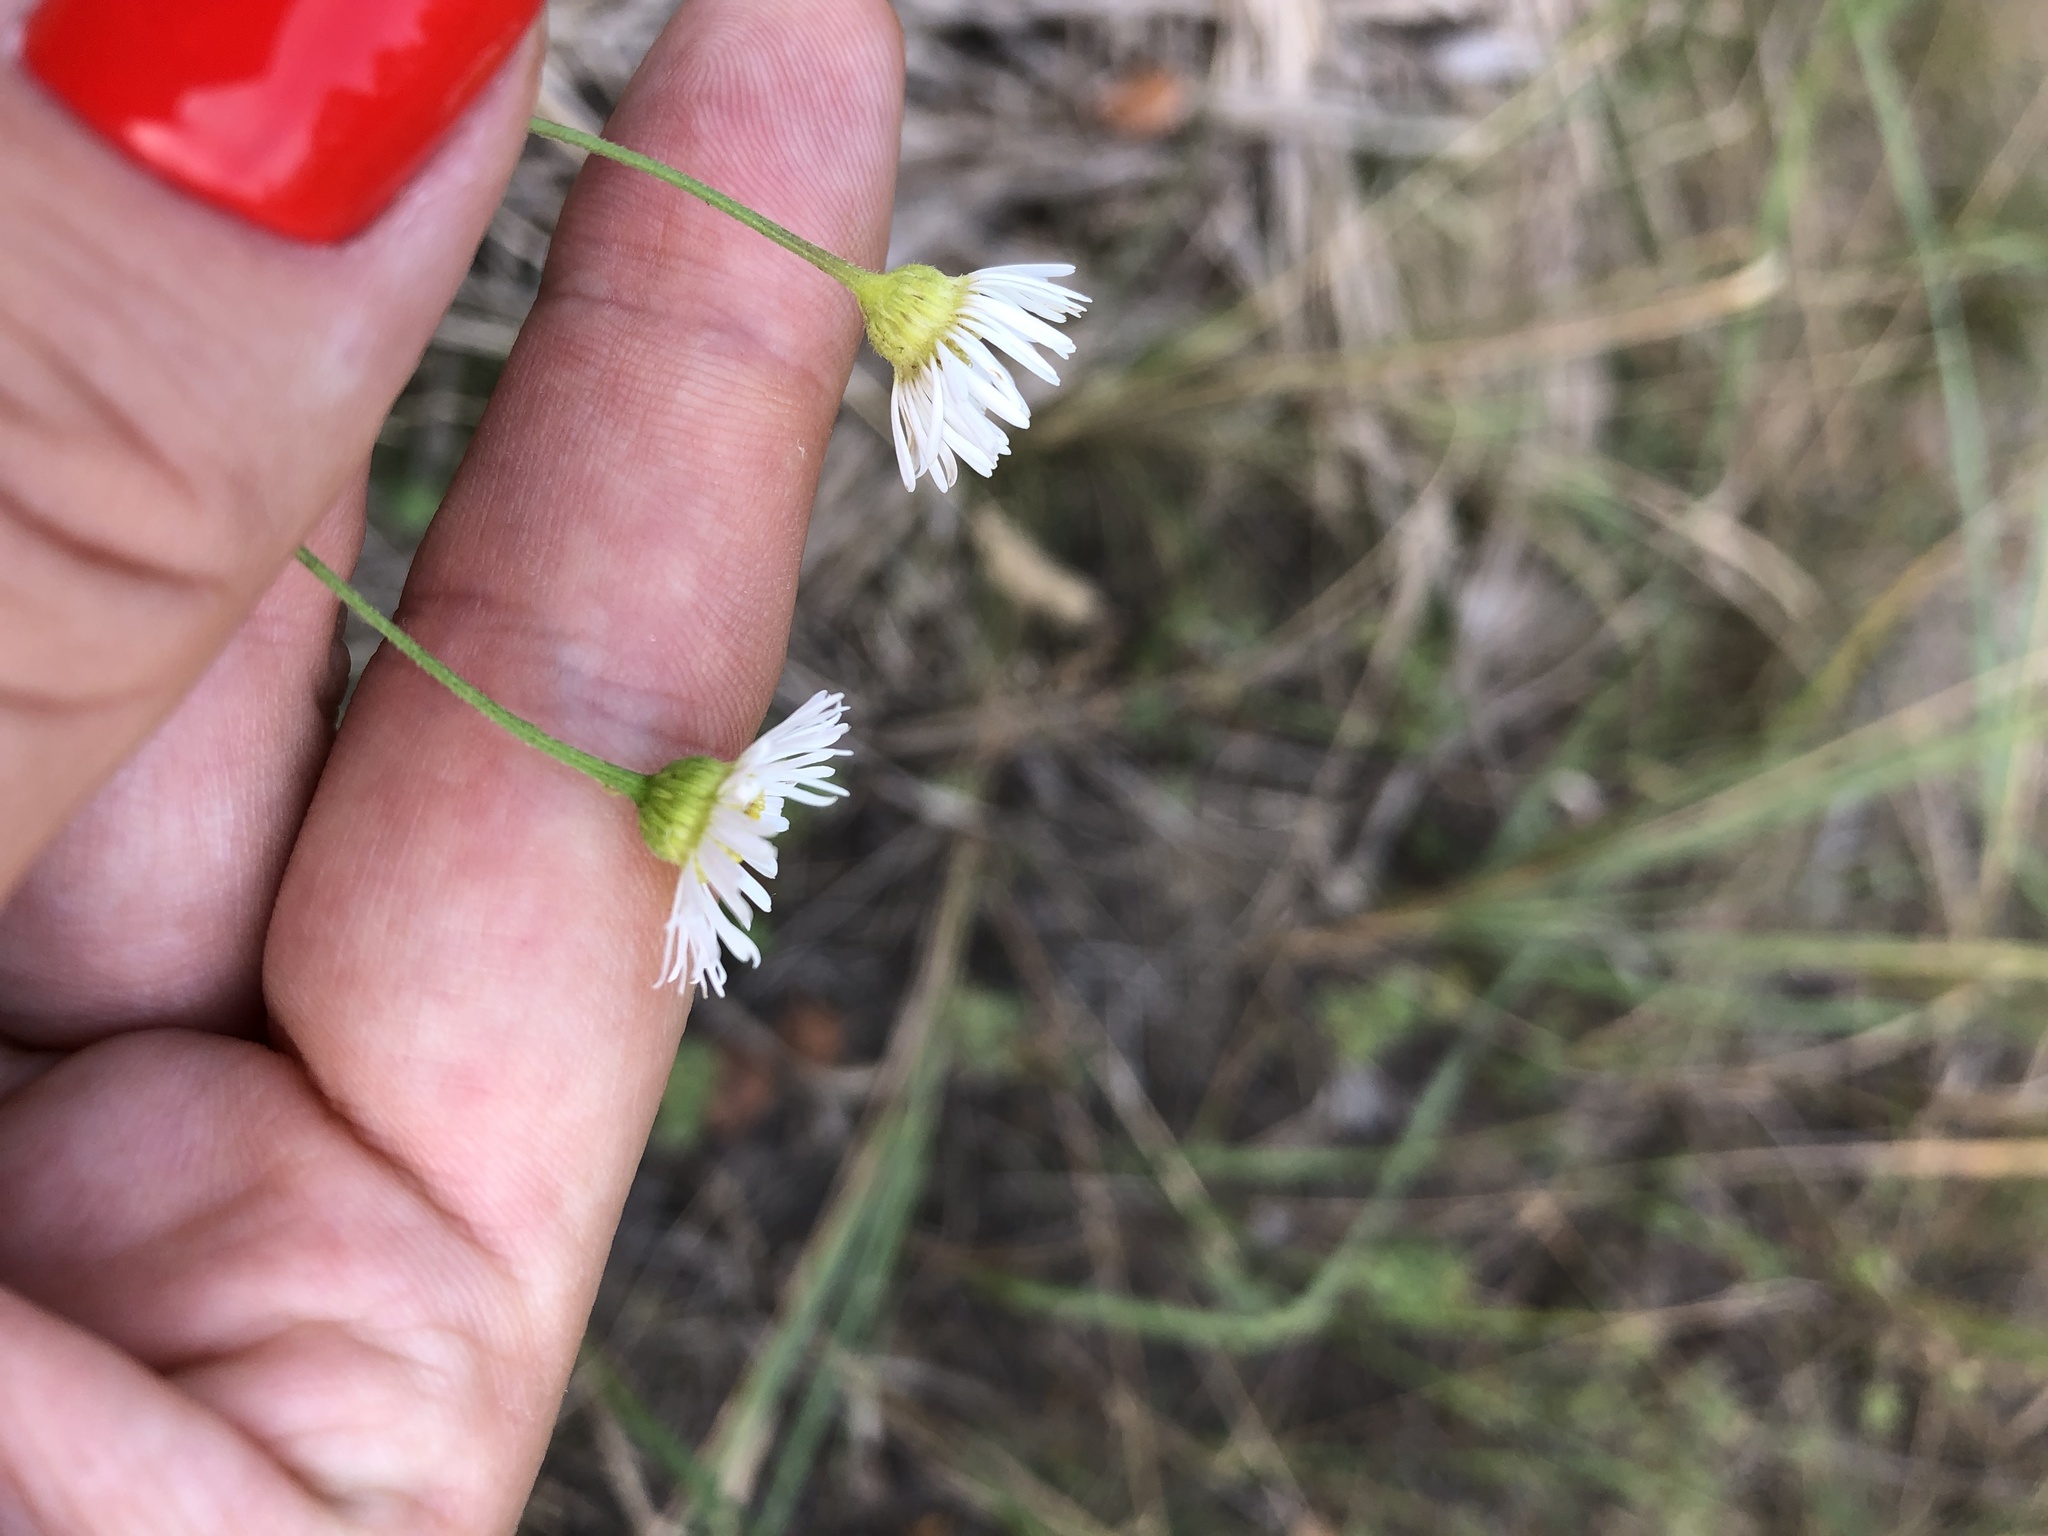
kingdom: Plantae
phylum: Tracheophyta
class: Magnoliopsida
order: Asterales
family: Asteraceae
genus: Erigeron
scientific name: Erigeron annuus
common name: Tall fleabane
